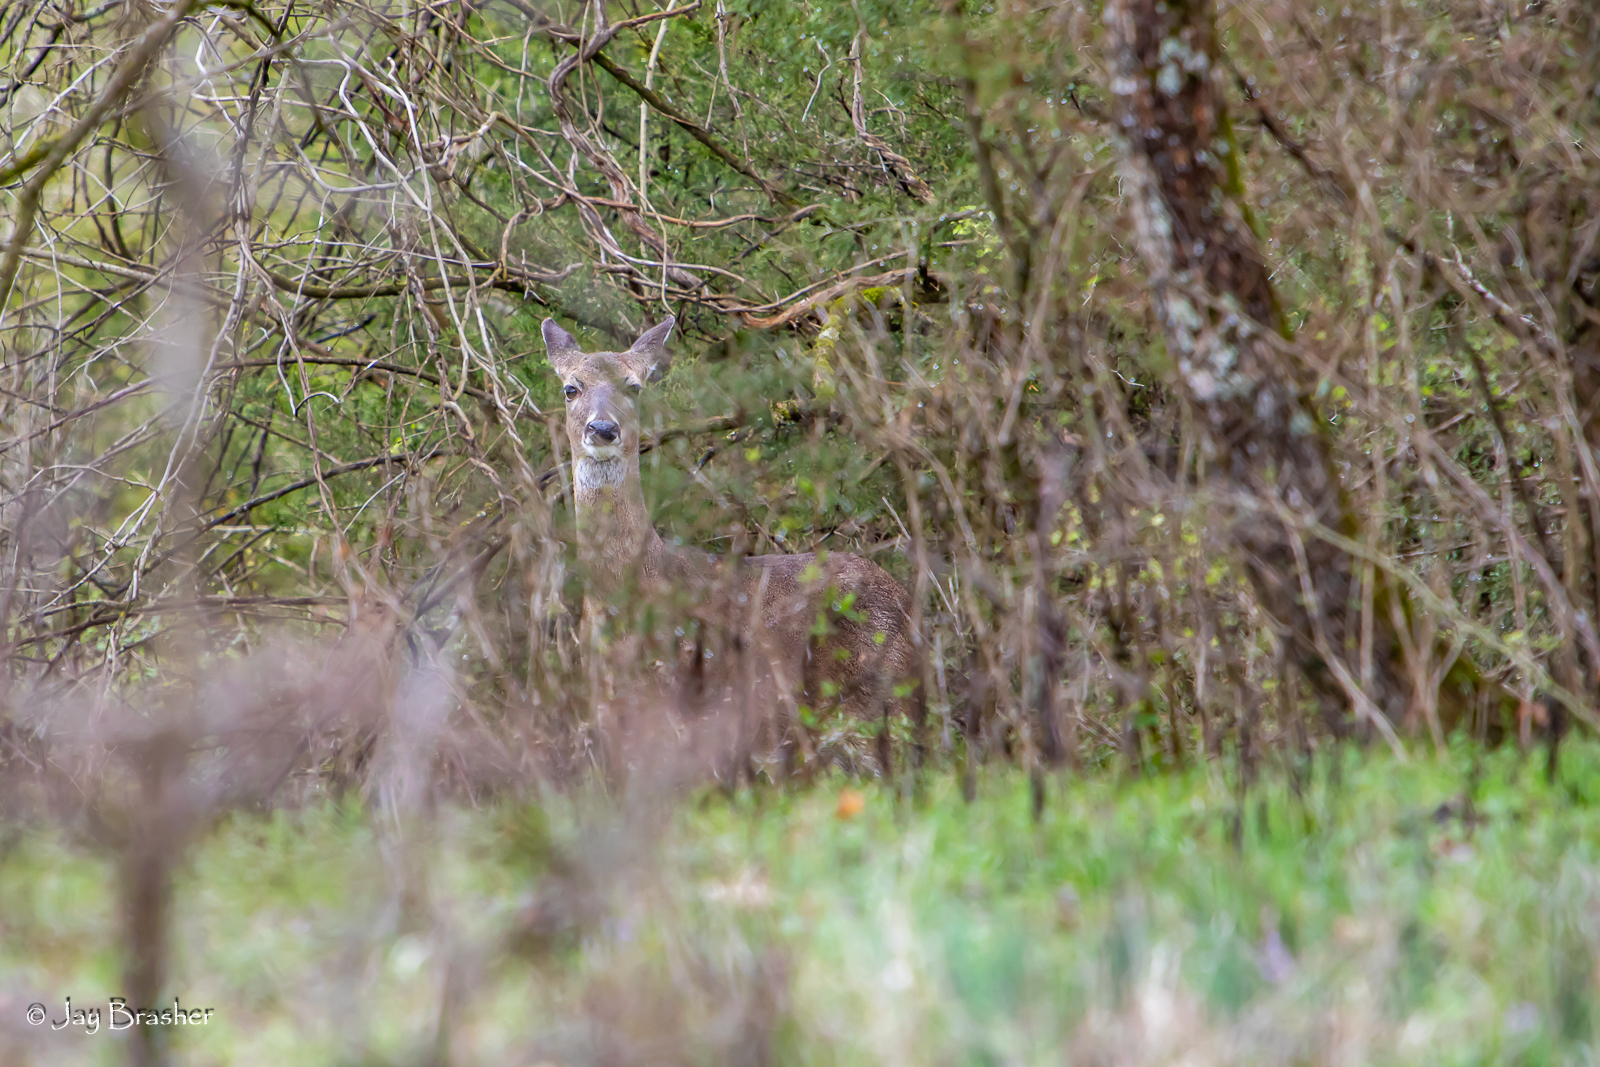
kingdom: Animalia
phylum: Chordata
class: Mammalia
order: Artiodactyla
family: Cervidae
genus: Odocoileus
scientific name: Odocoileus virginianus
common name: White-tailed deer
